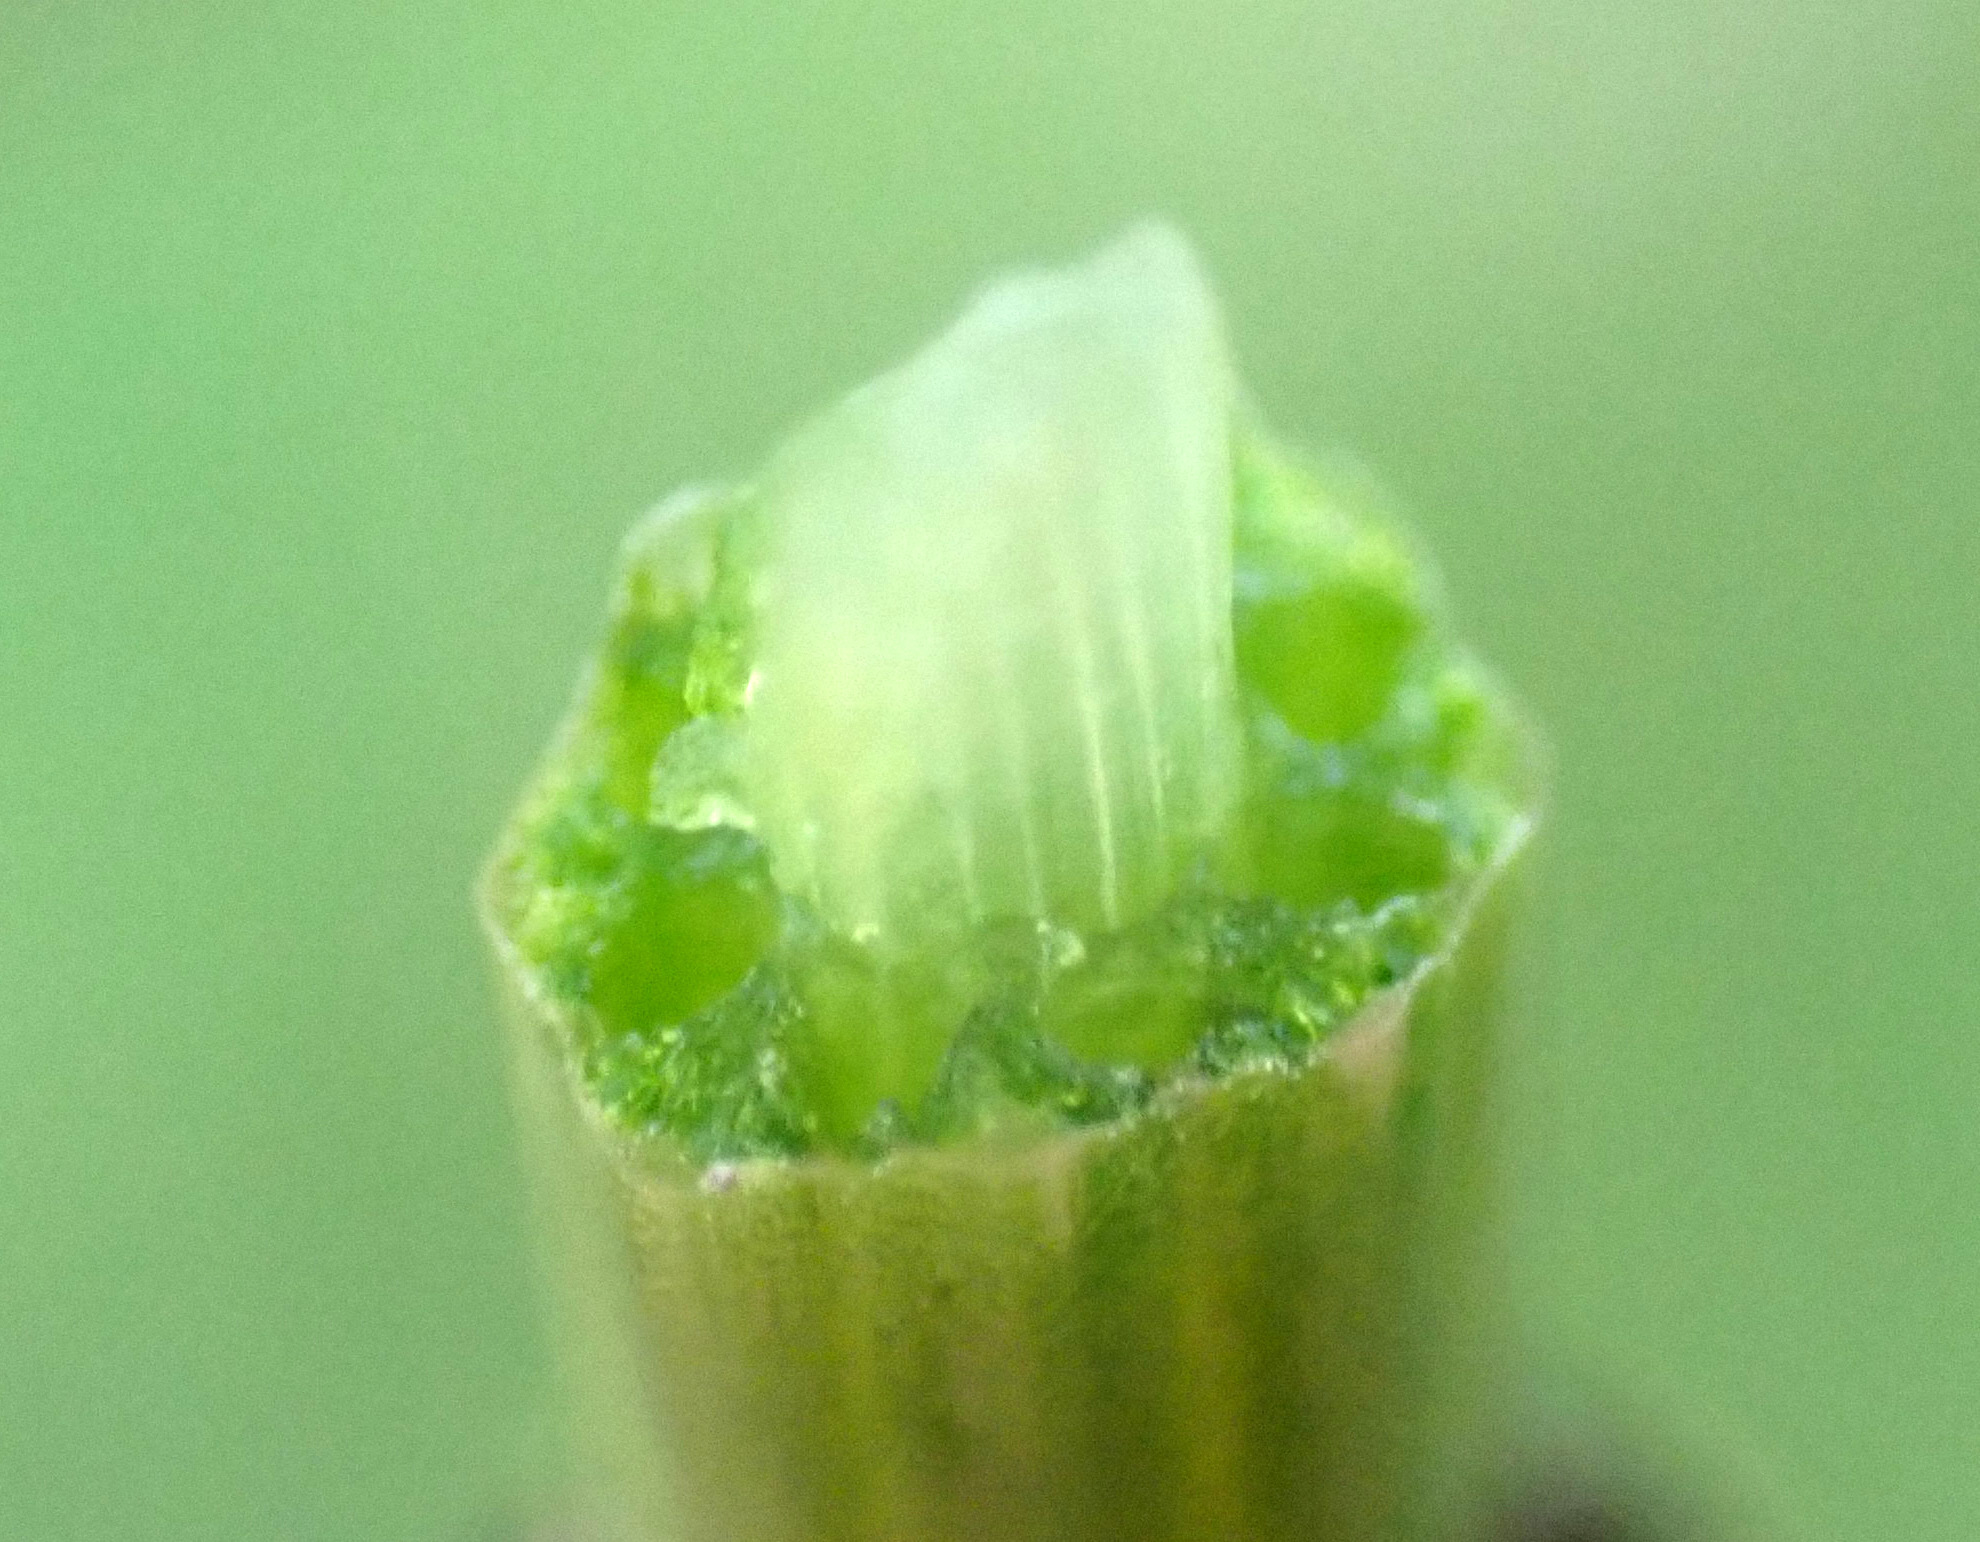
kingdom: Plantae
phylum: Tracheophyta
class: Polypodiopsida
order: Equisetales
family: Equisetaceae
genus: Equisetum
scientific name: Equisetum palustre
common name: Marsh horsetail
